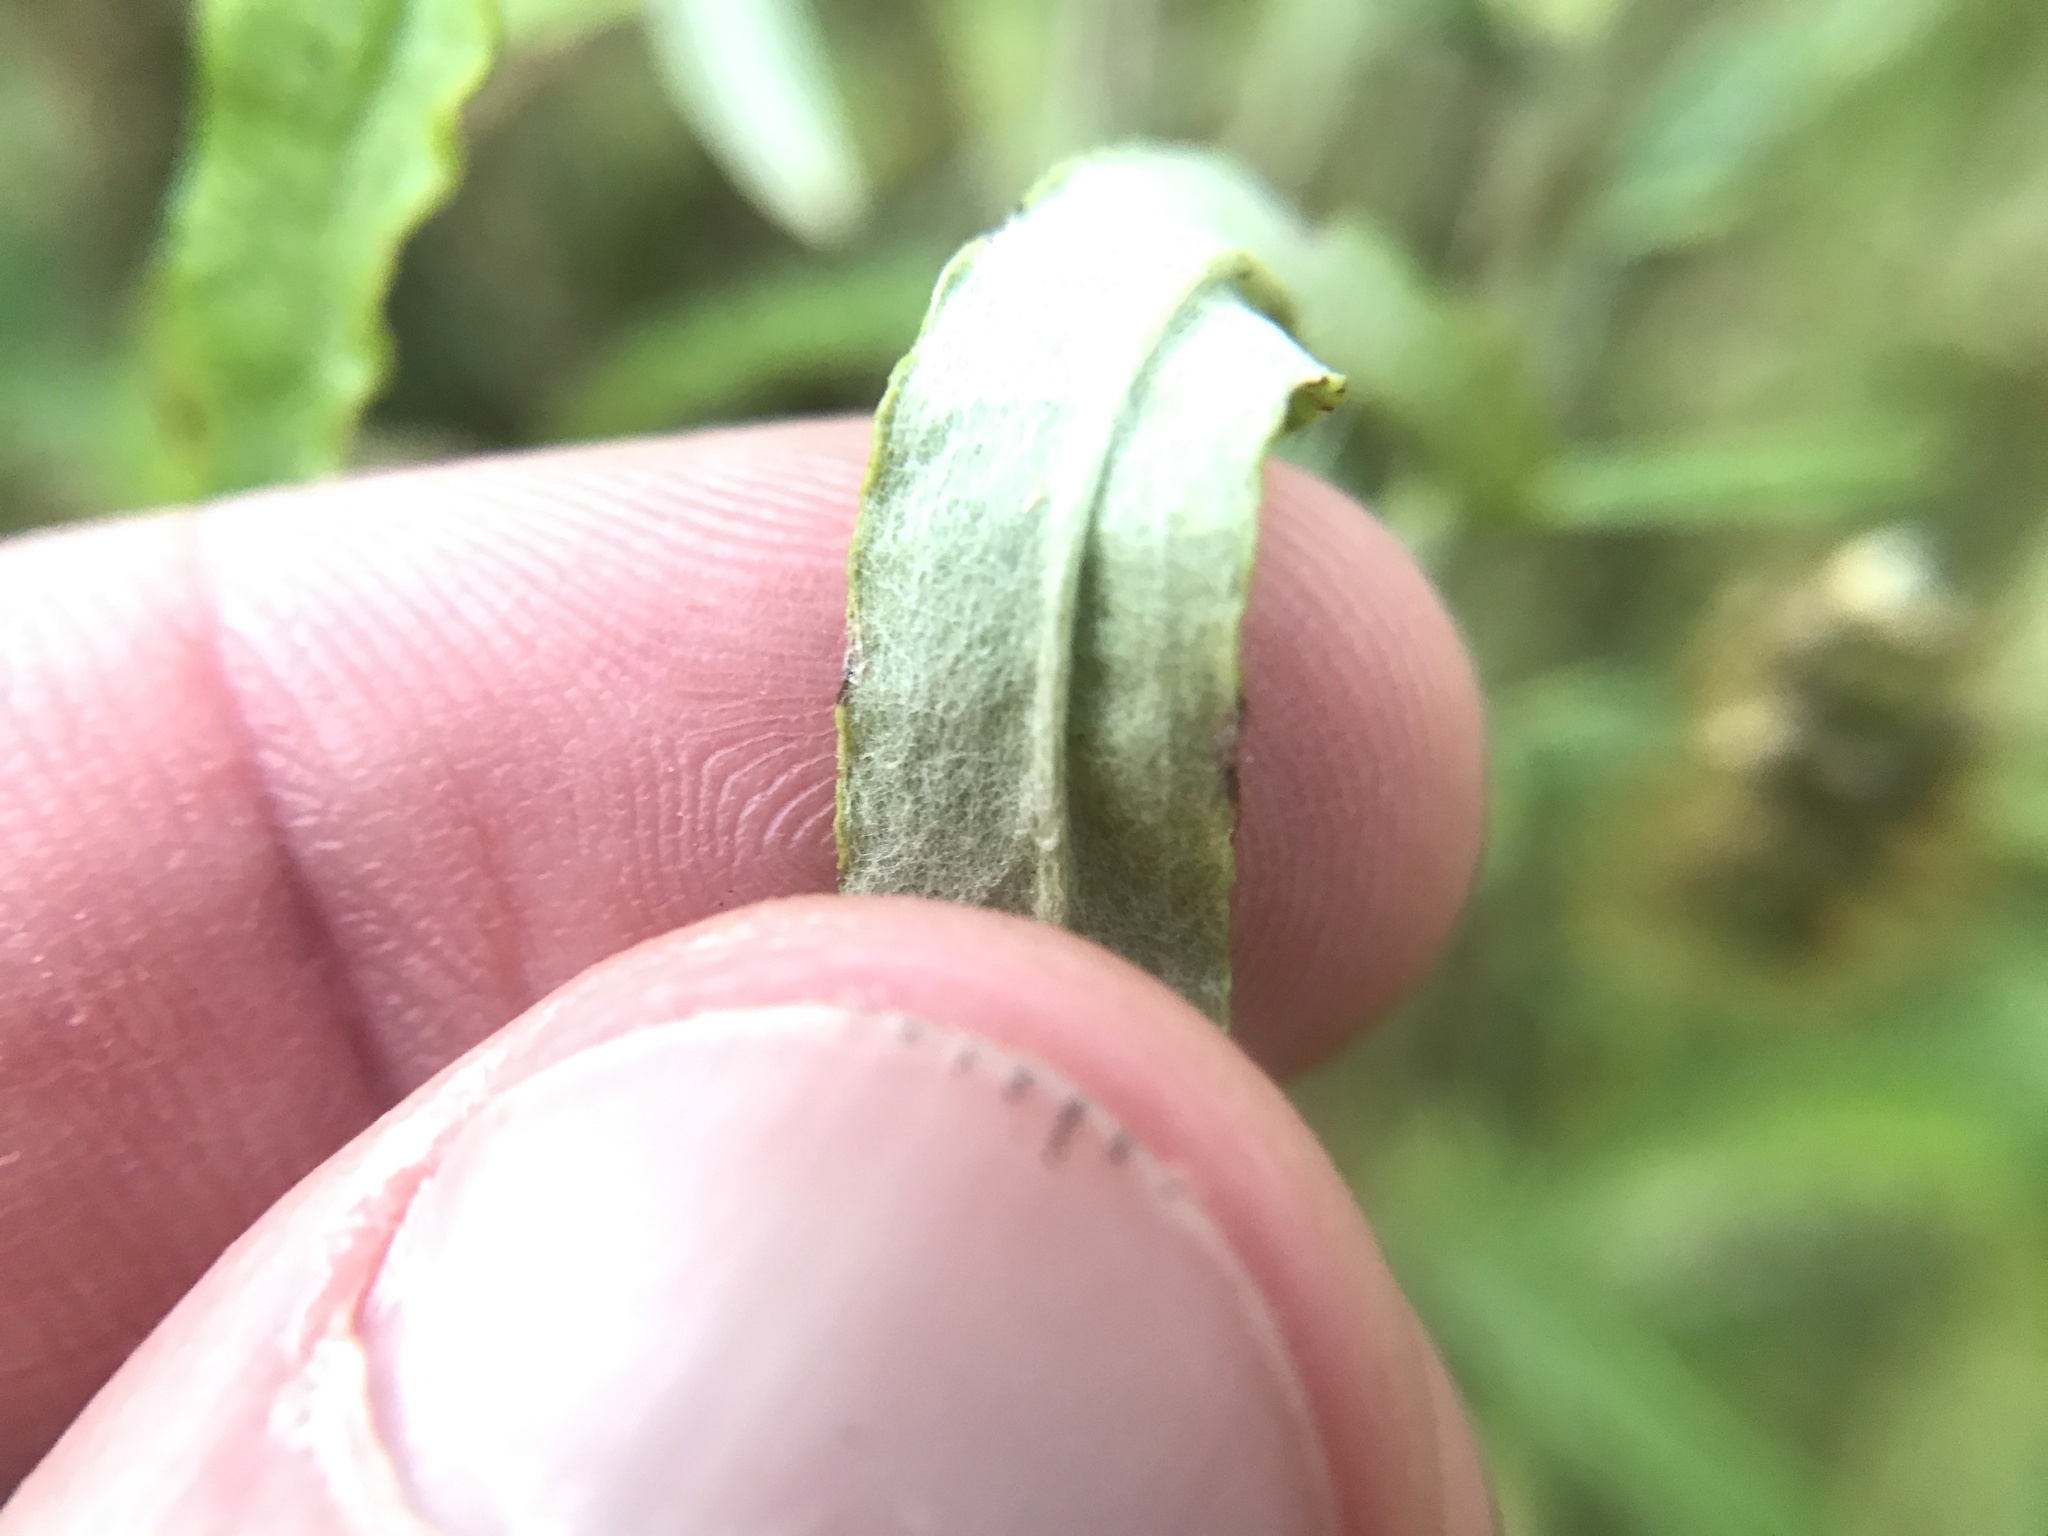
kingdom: Plantae
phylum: Tracheophyta
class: Magnoliopsida
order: Asterales
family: Asteraceae
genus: Pseudognaphalium
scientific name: Pseudognaphalium obtusifolium
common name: Eastern rabbit-tobacco
